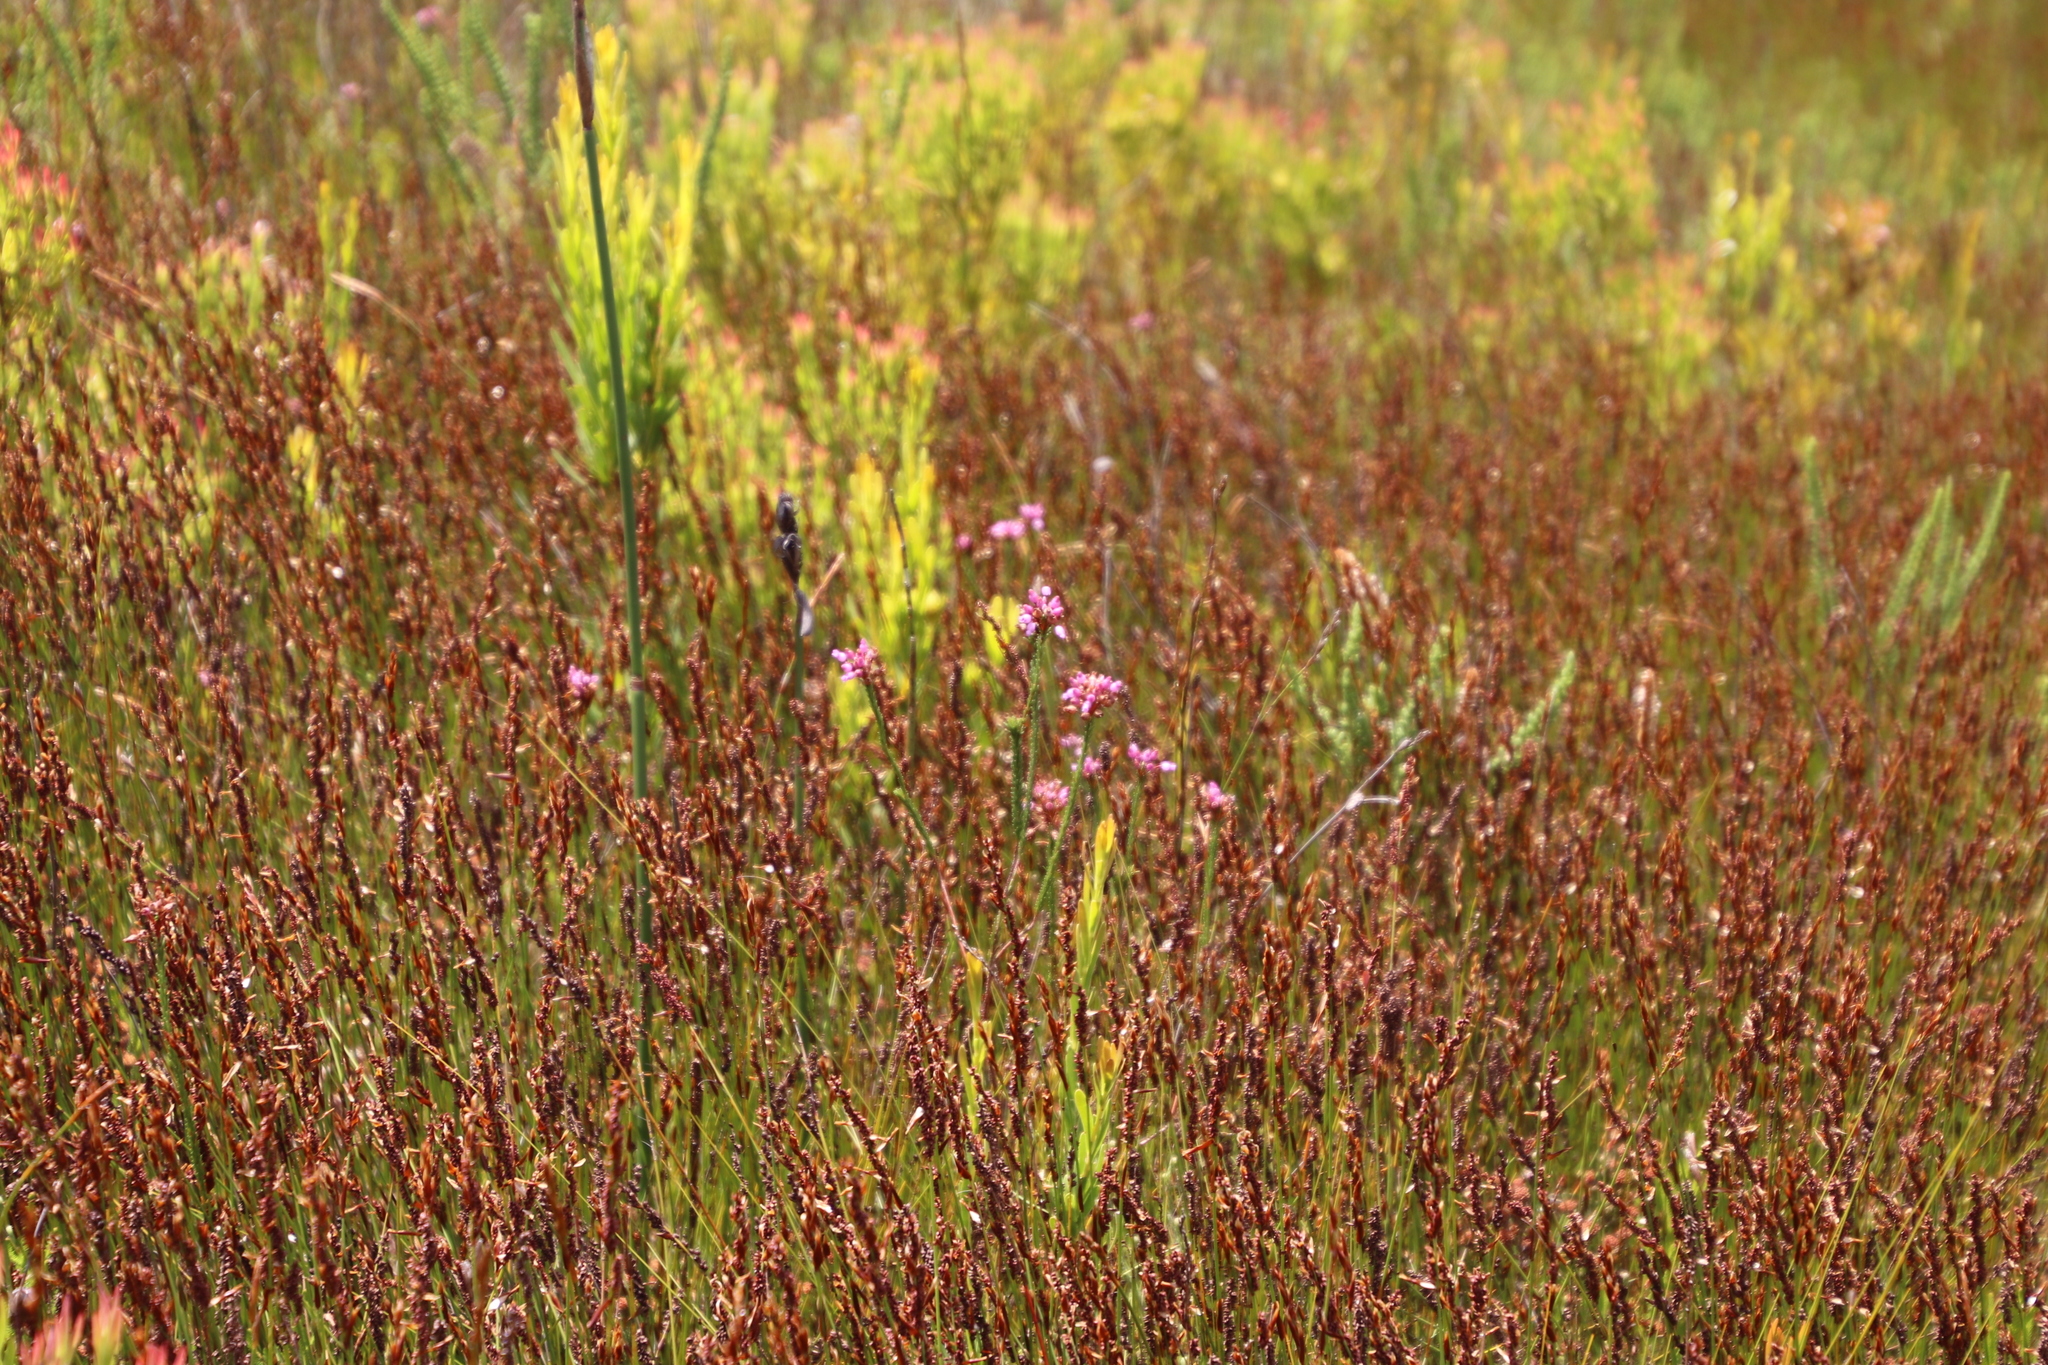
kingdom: Plantae
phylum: Tracheophyta
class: Magnoliopsida
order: Ericales
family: Ericaceae
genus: Erica
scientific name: Erica obliqua
